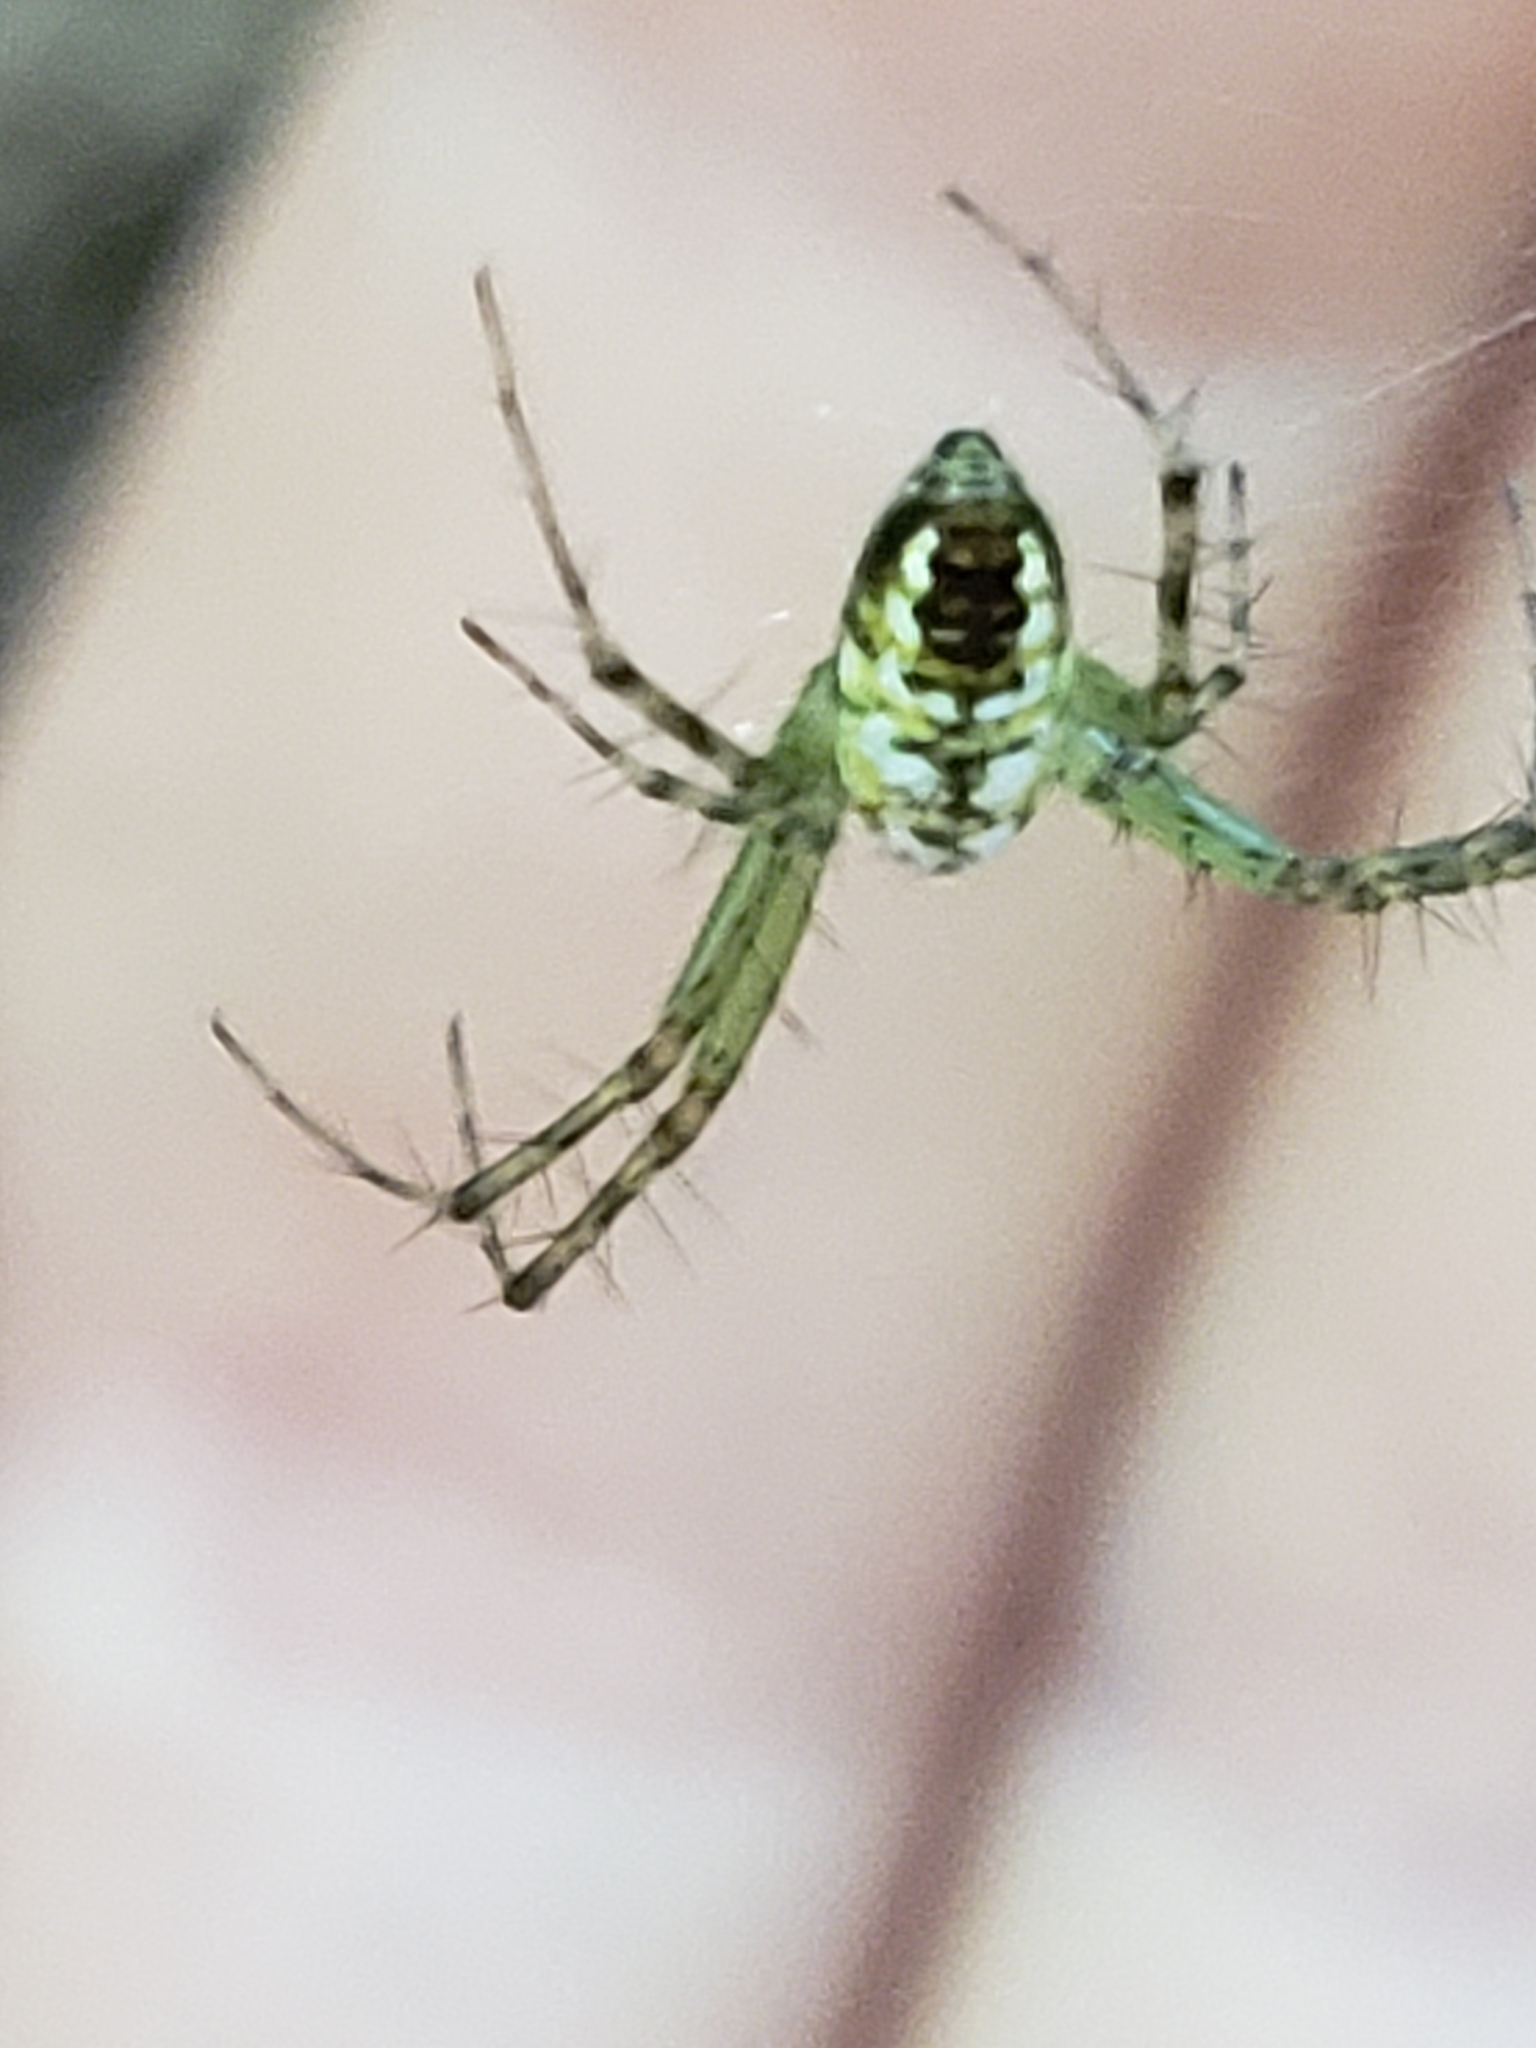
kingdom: Animalia
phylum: Arthropoda
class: Arachnida
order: Araneae
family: Araneidae
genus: Mangora
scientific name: Mangora spiculata
